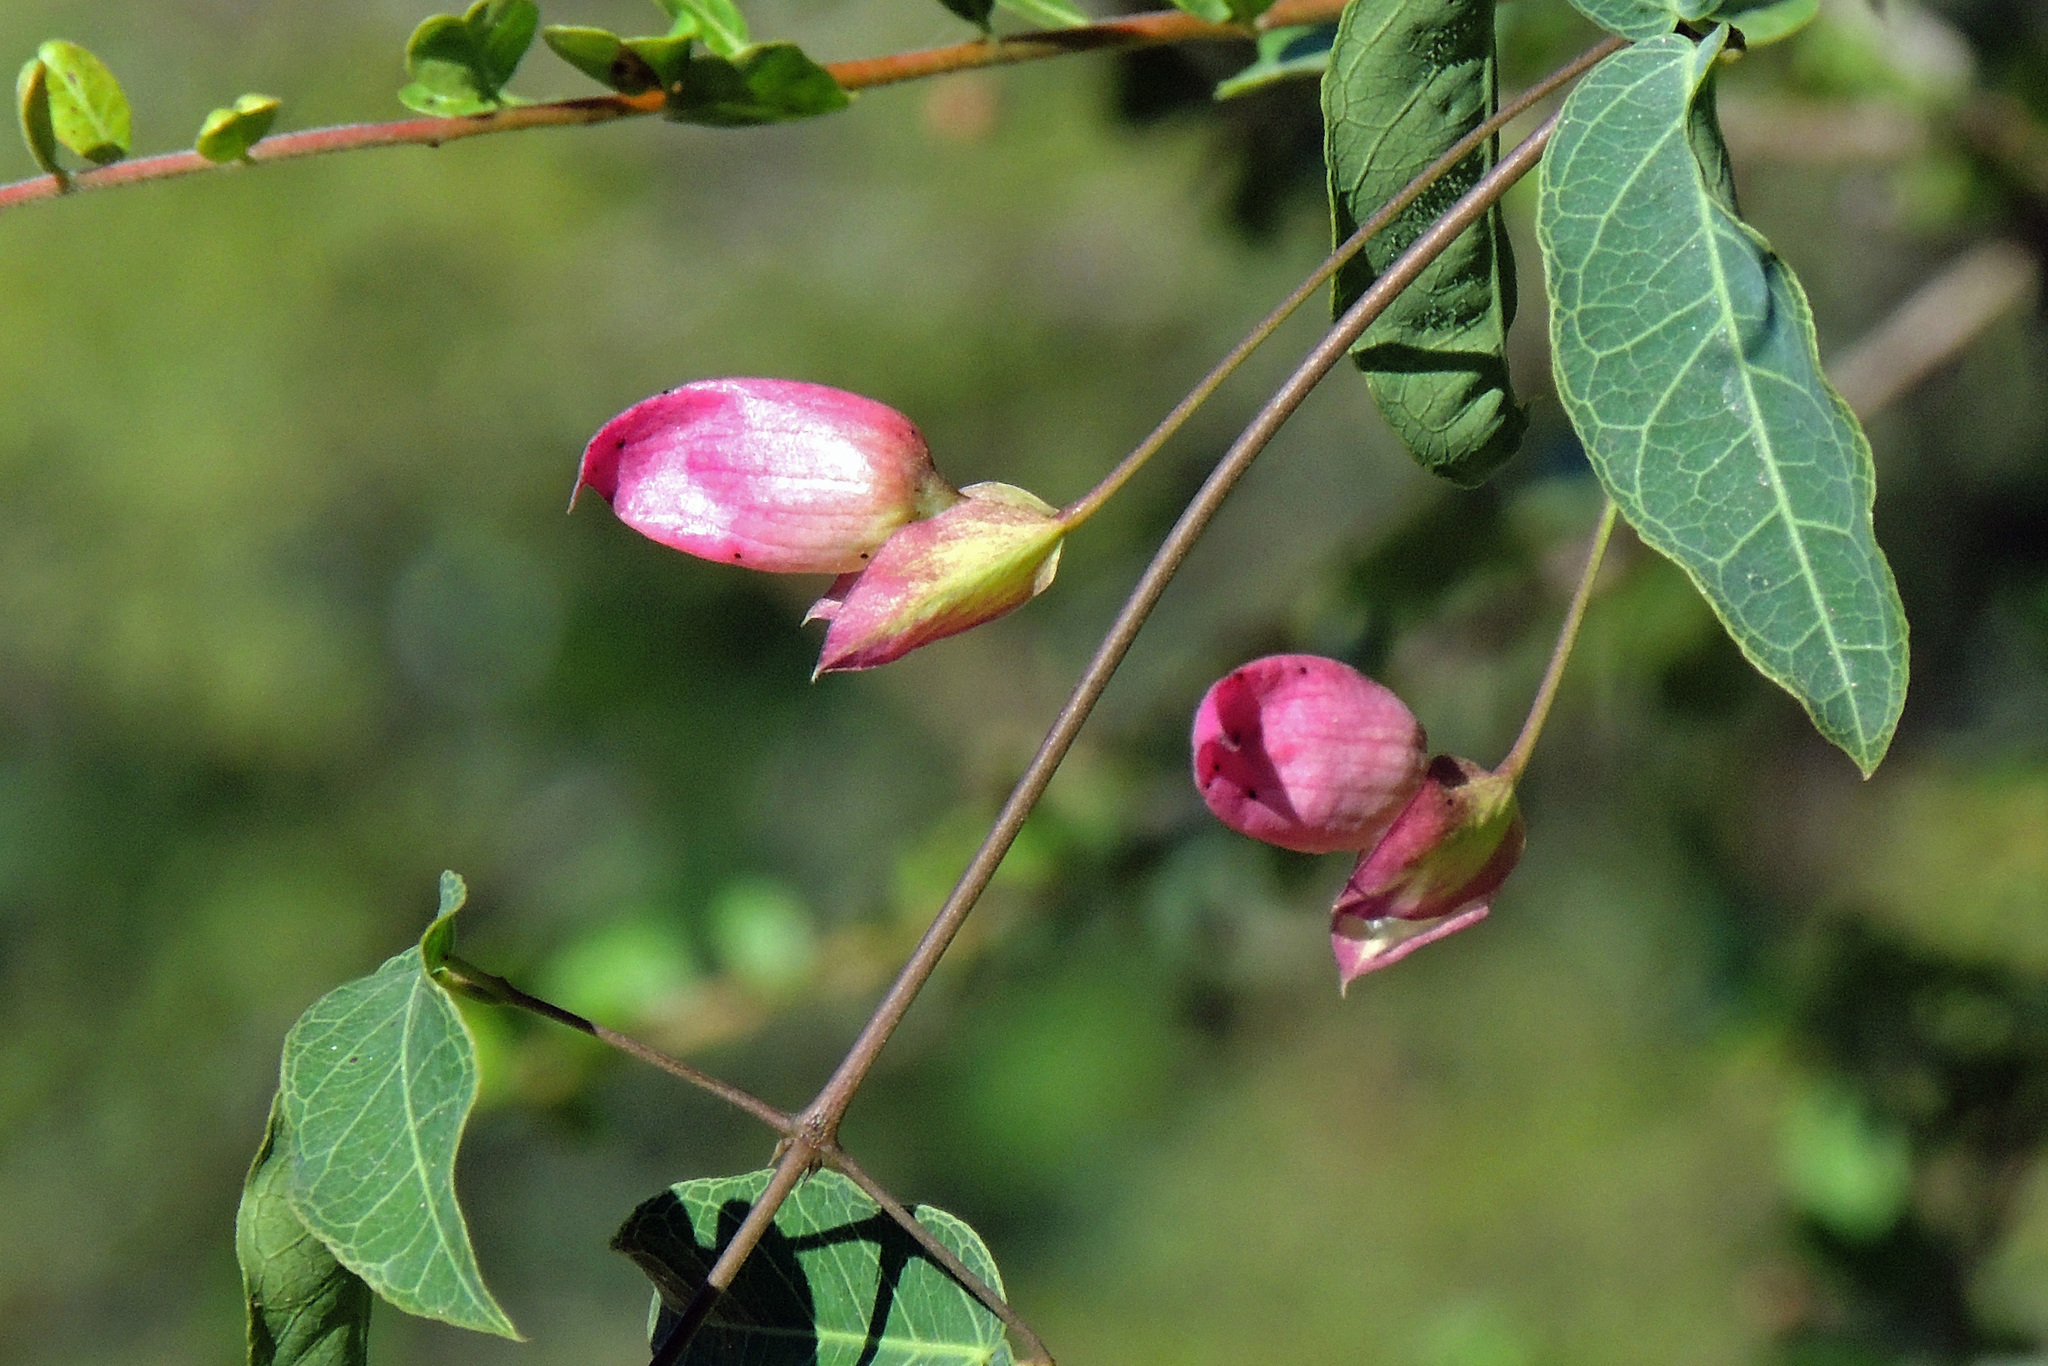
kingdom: Plantae
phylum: Tracheophyta
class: Magnoliopsida
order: Lamiales
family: Bignoniaceae
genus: Dolichandra
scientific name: Dolichandra cynanchoides
